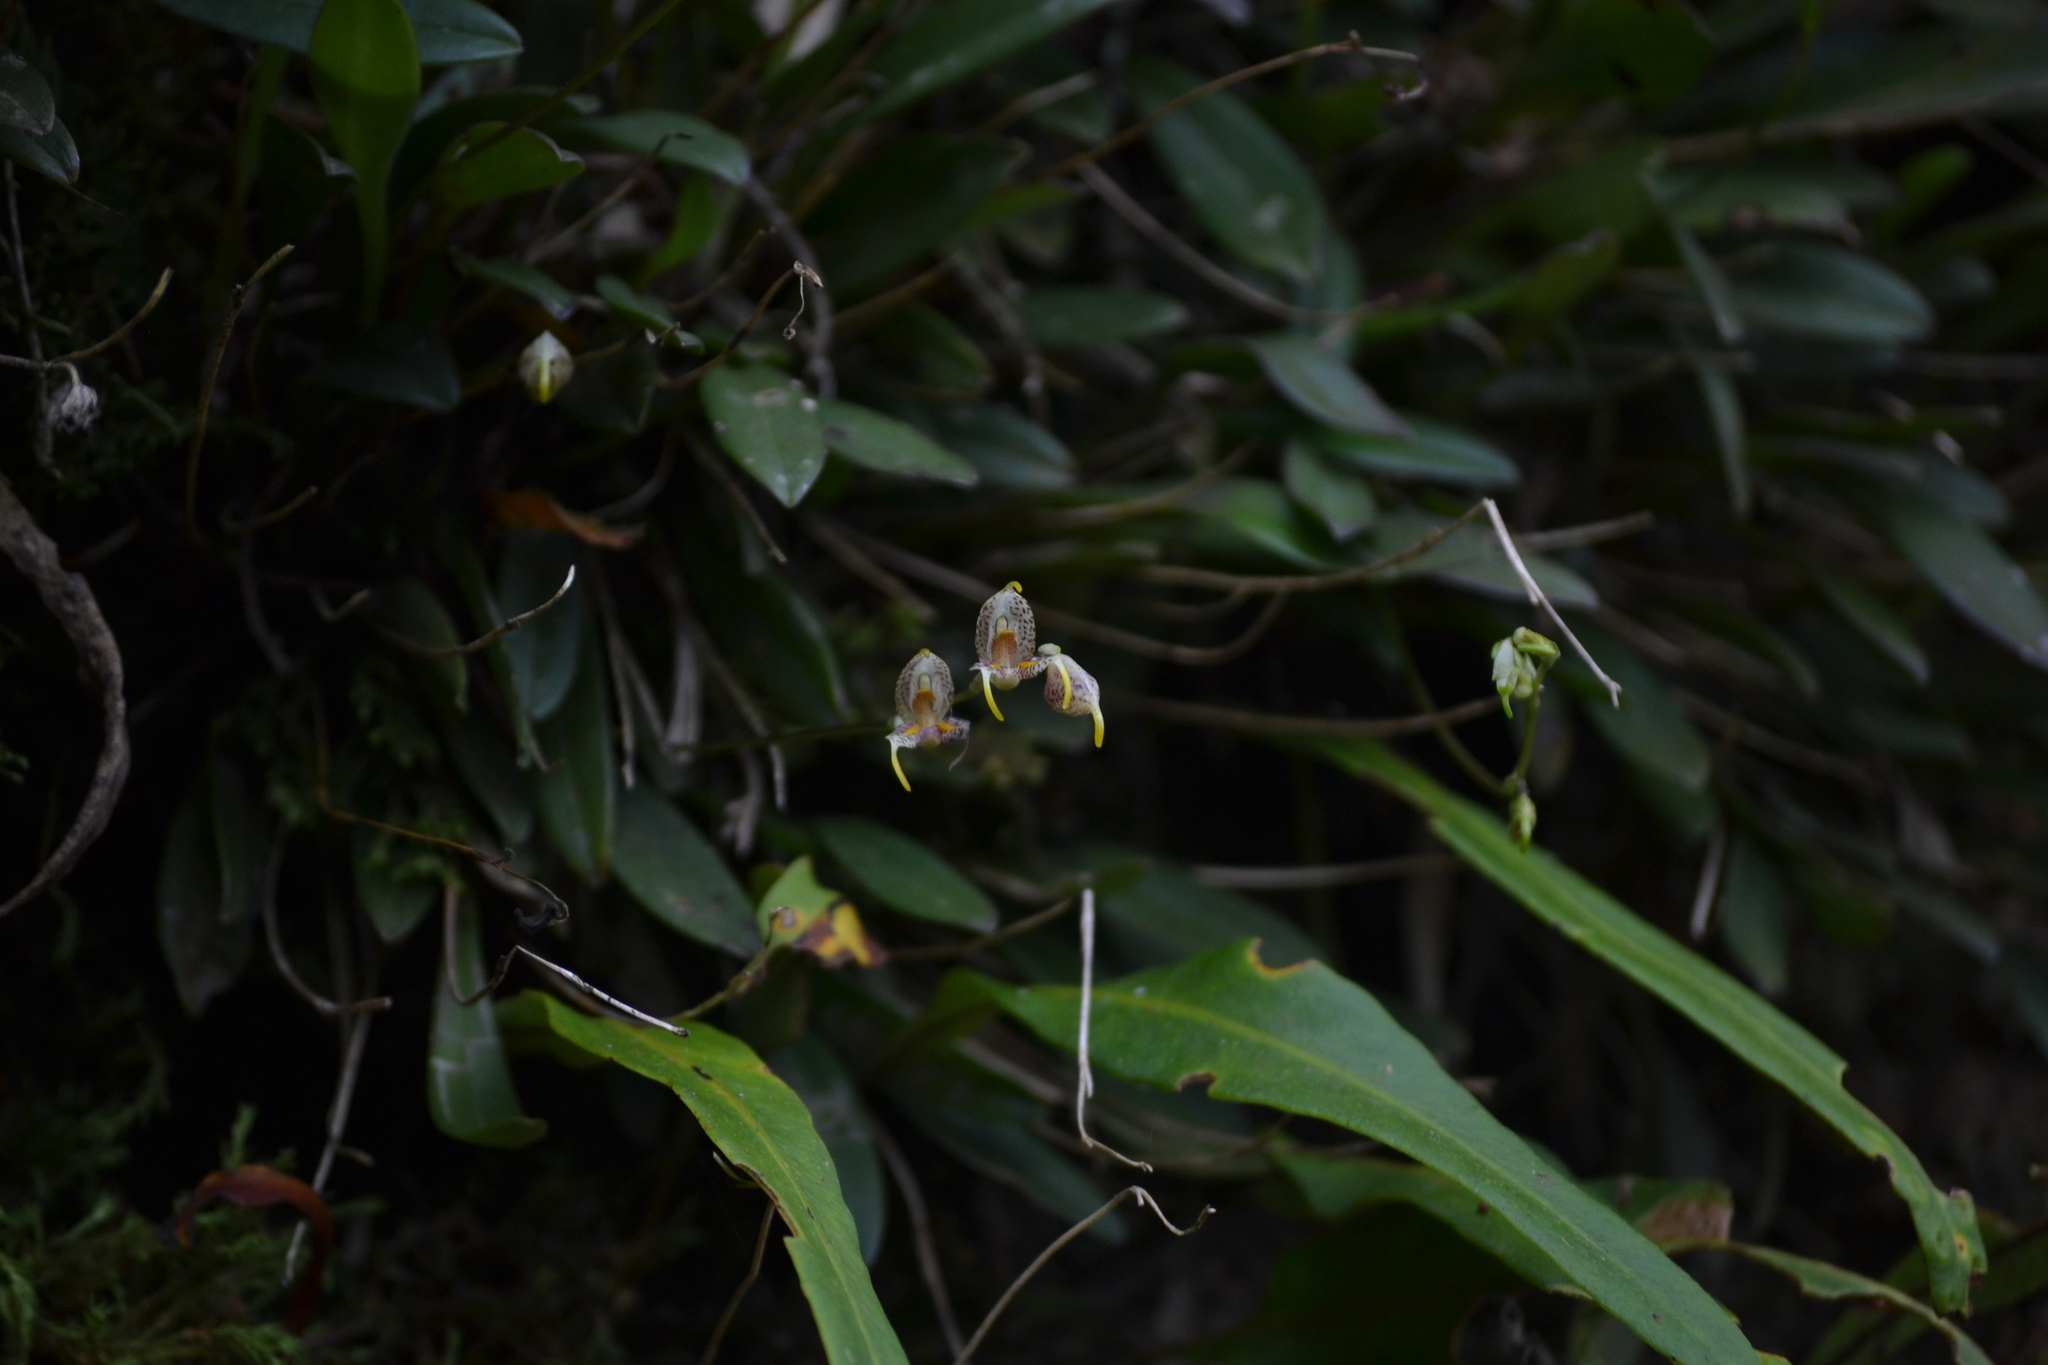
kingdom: Plantae
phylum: Tracheophyta
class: Liliopsida
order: Asparagales
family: Orchidaceae
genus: Masdevallia
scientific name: Masdevallia amanda
